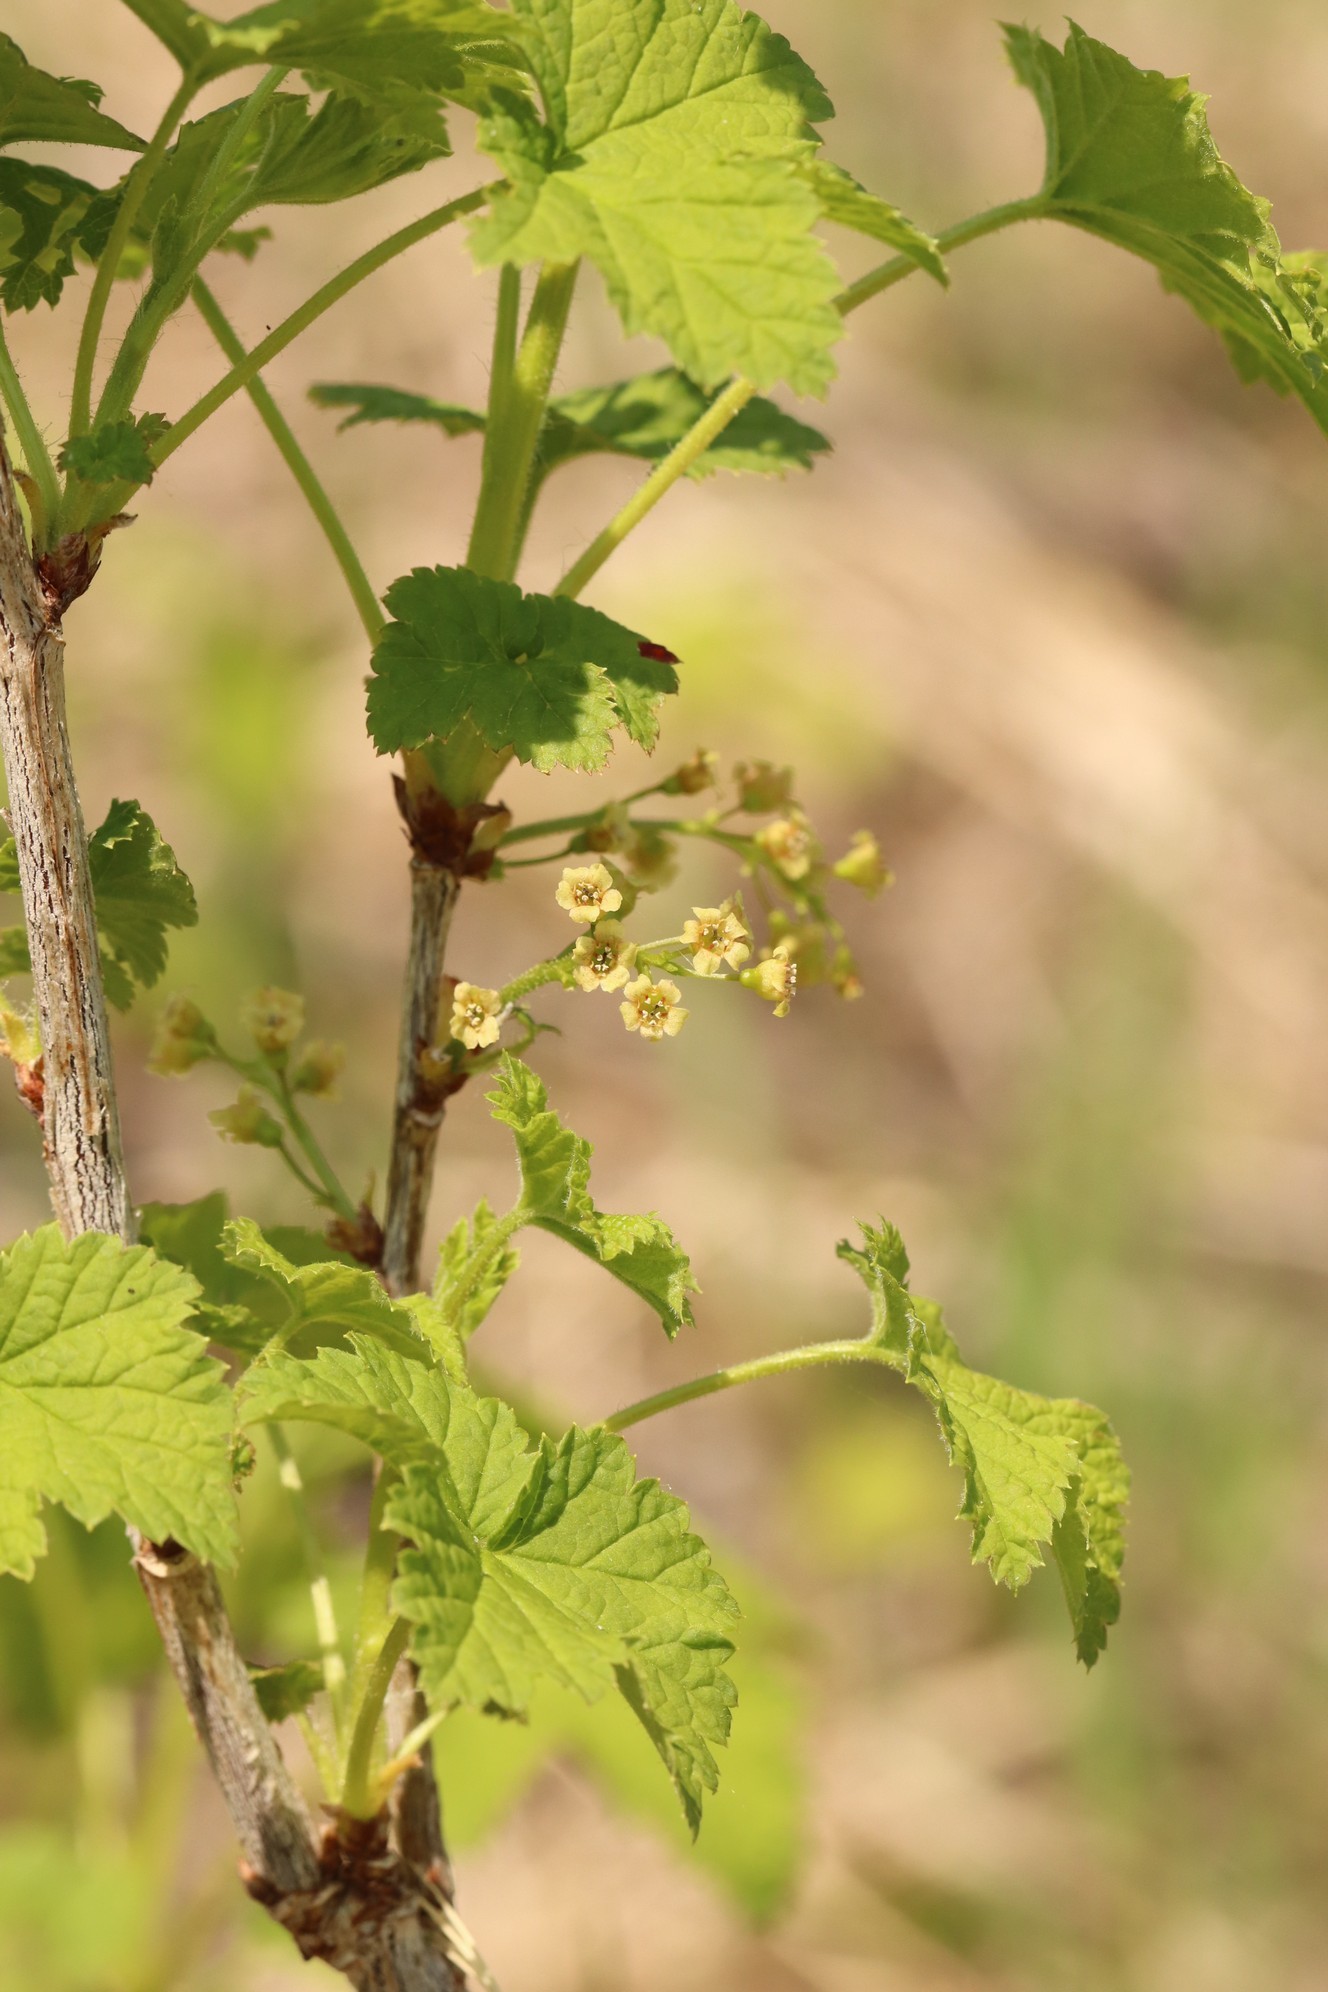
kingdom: Plantae
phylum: Tracheophyta
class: Magnoliopsida
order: Saxifragales
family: Grossulariaceae
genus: Ribes
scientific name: Ribes spicatum
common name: Downy currant
